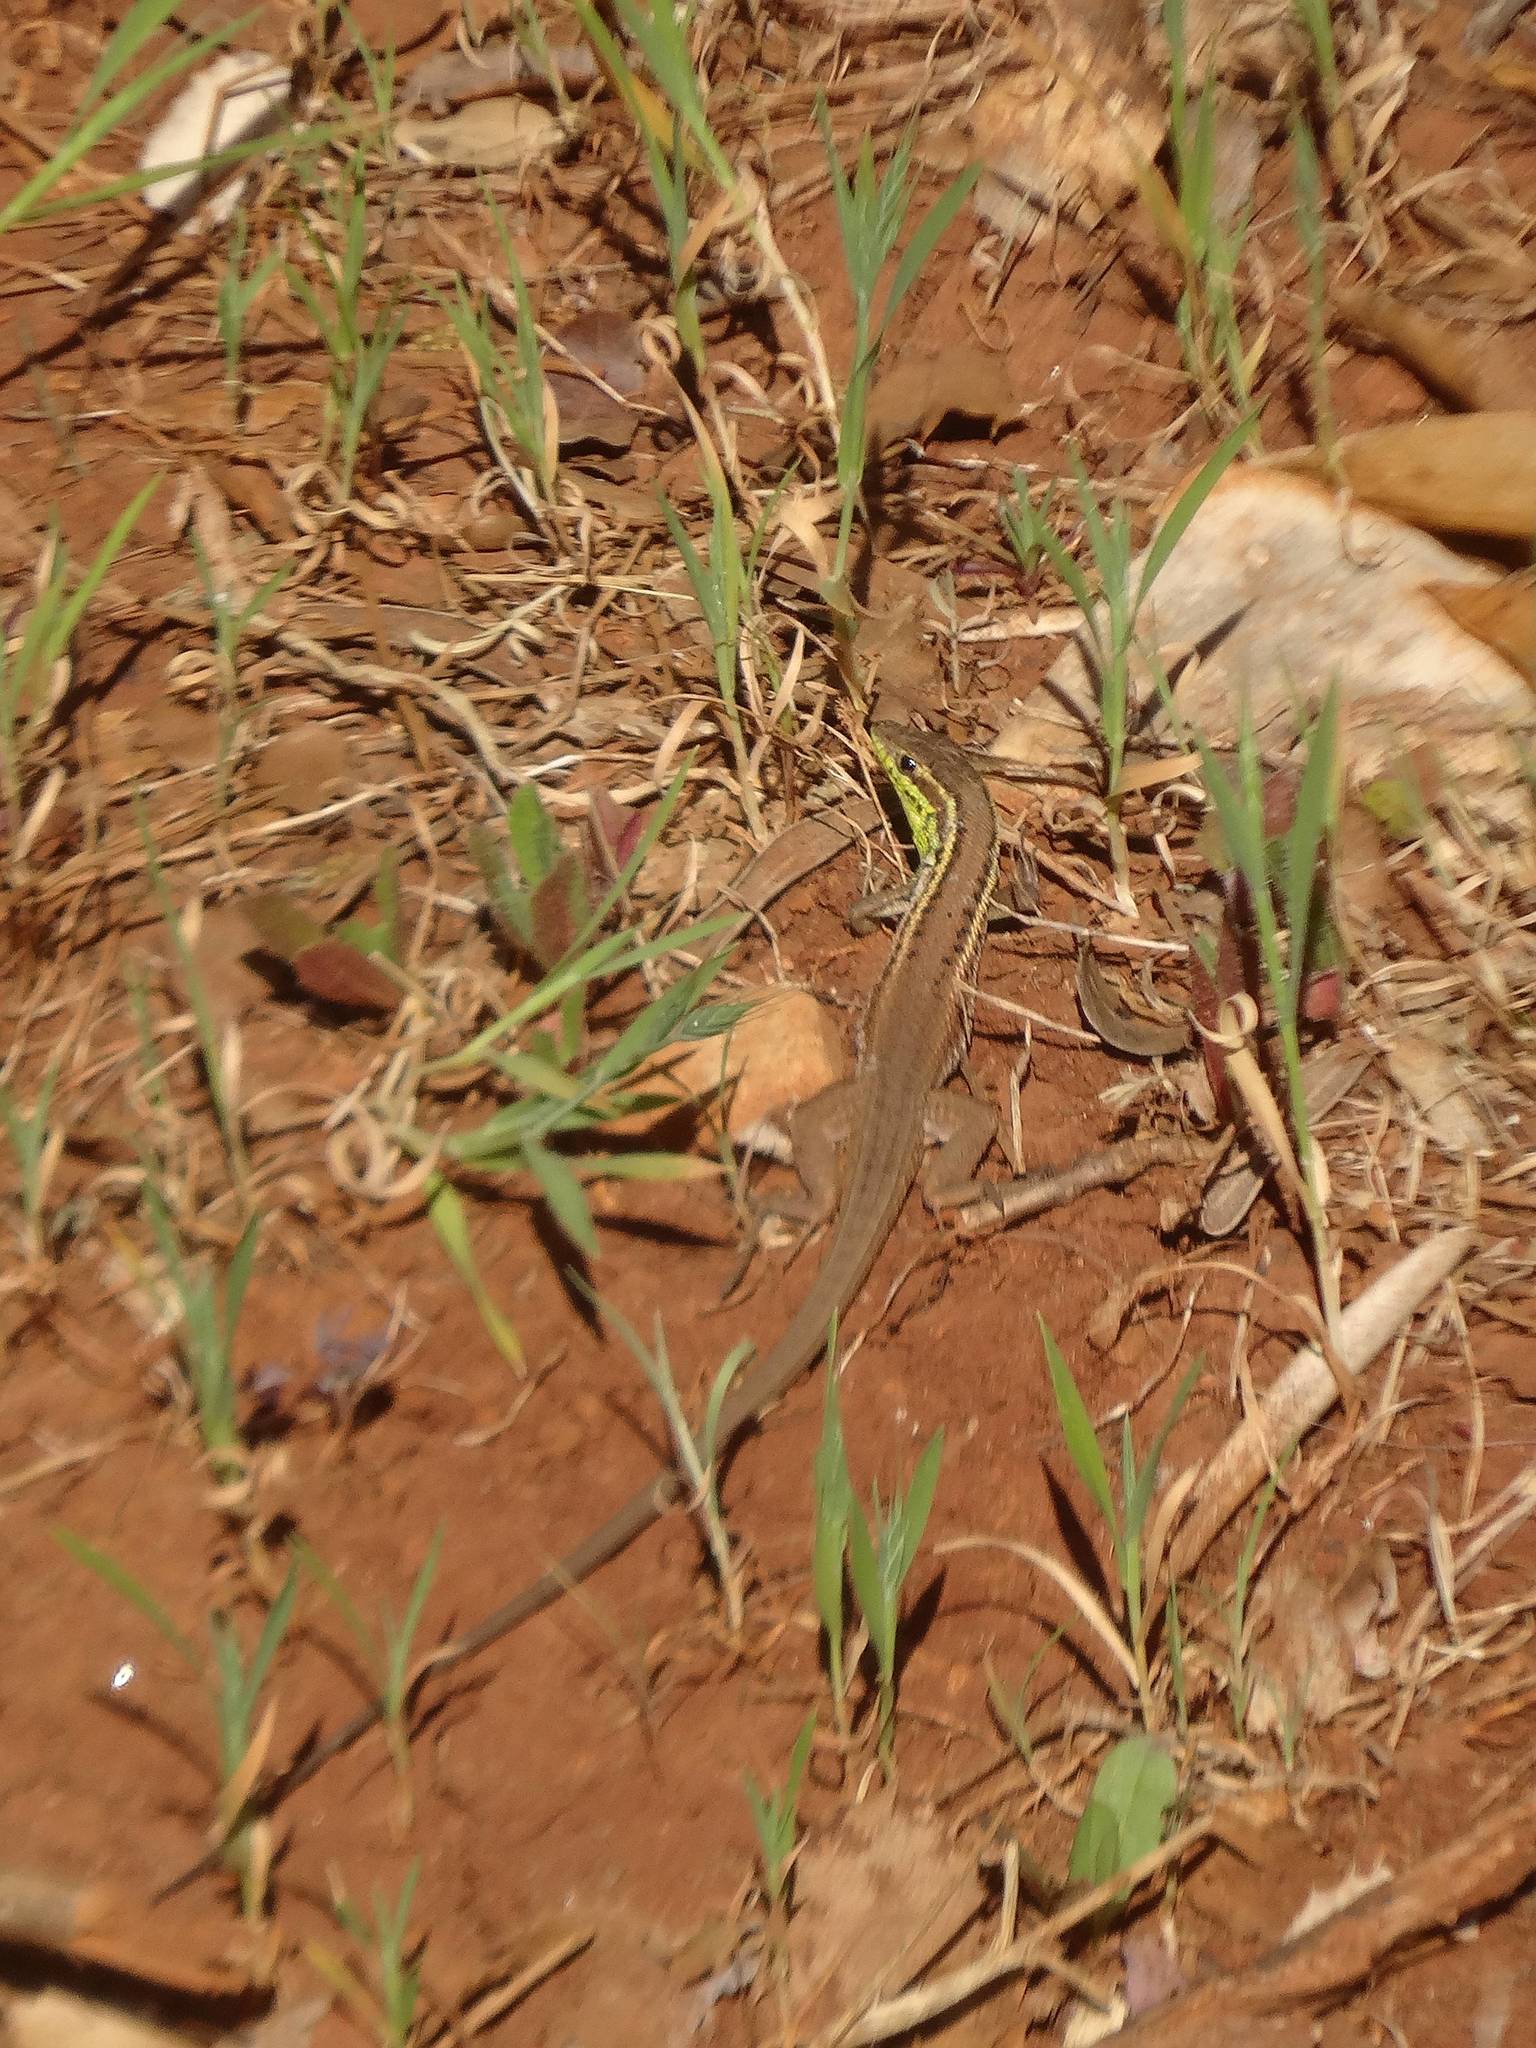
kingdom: Animalia
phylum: Chordata
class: Squamata
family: Lacertidae
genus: Ophisops
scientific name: Ophisops elegans
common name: Snake-eyed lizard
